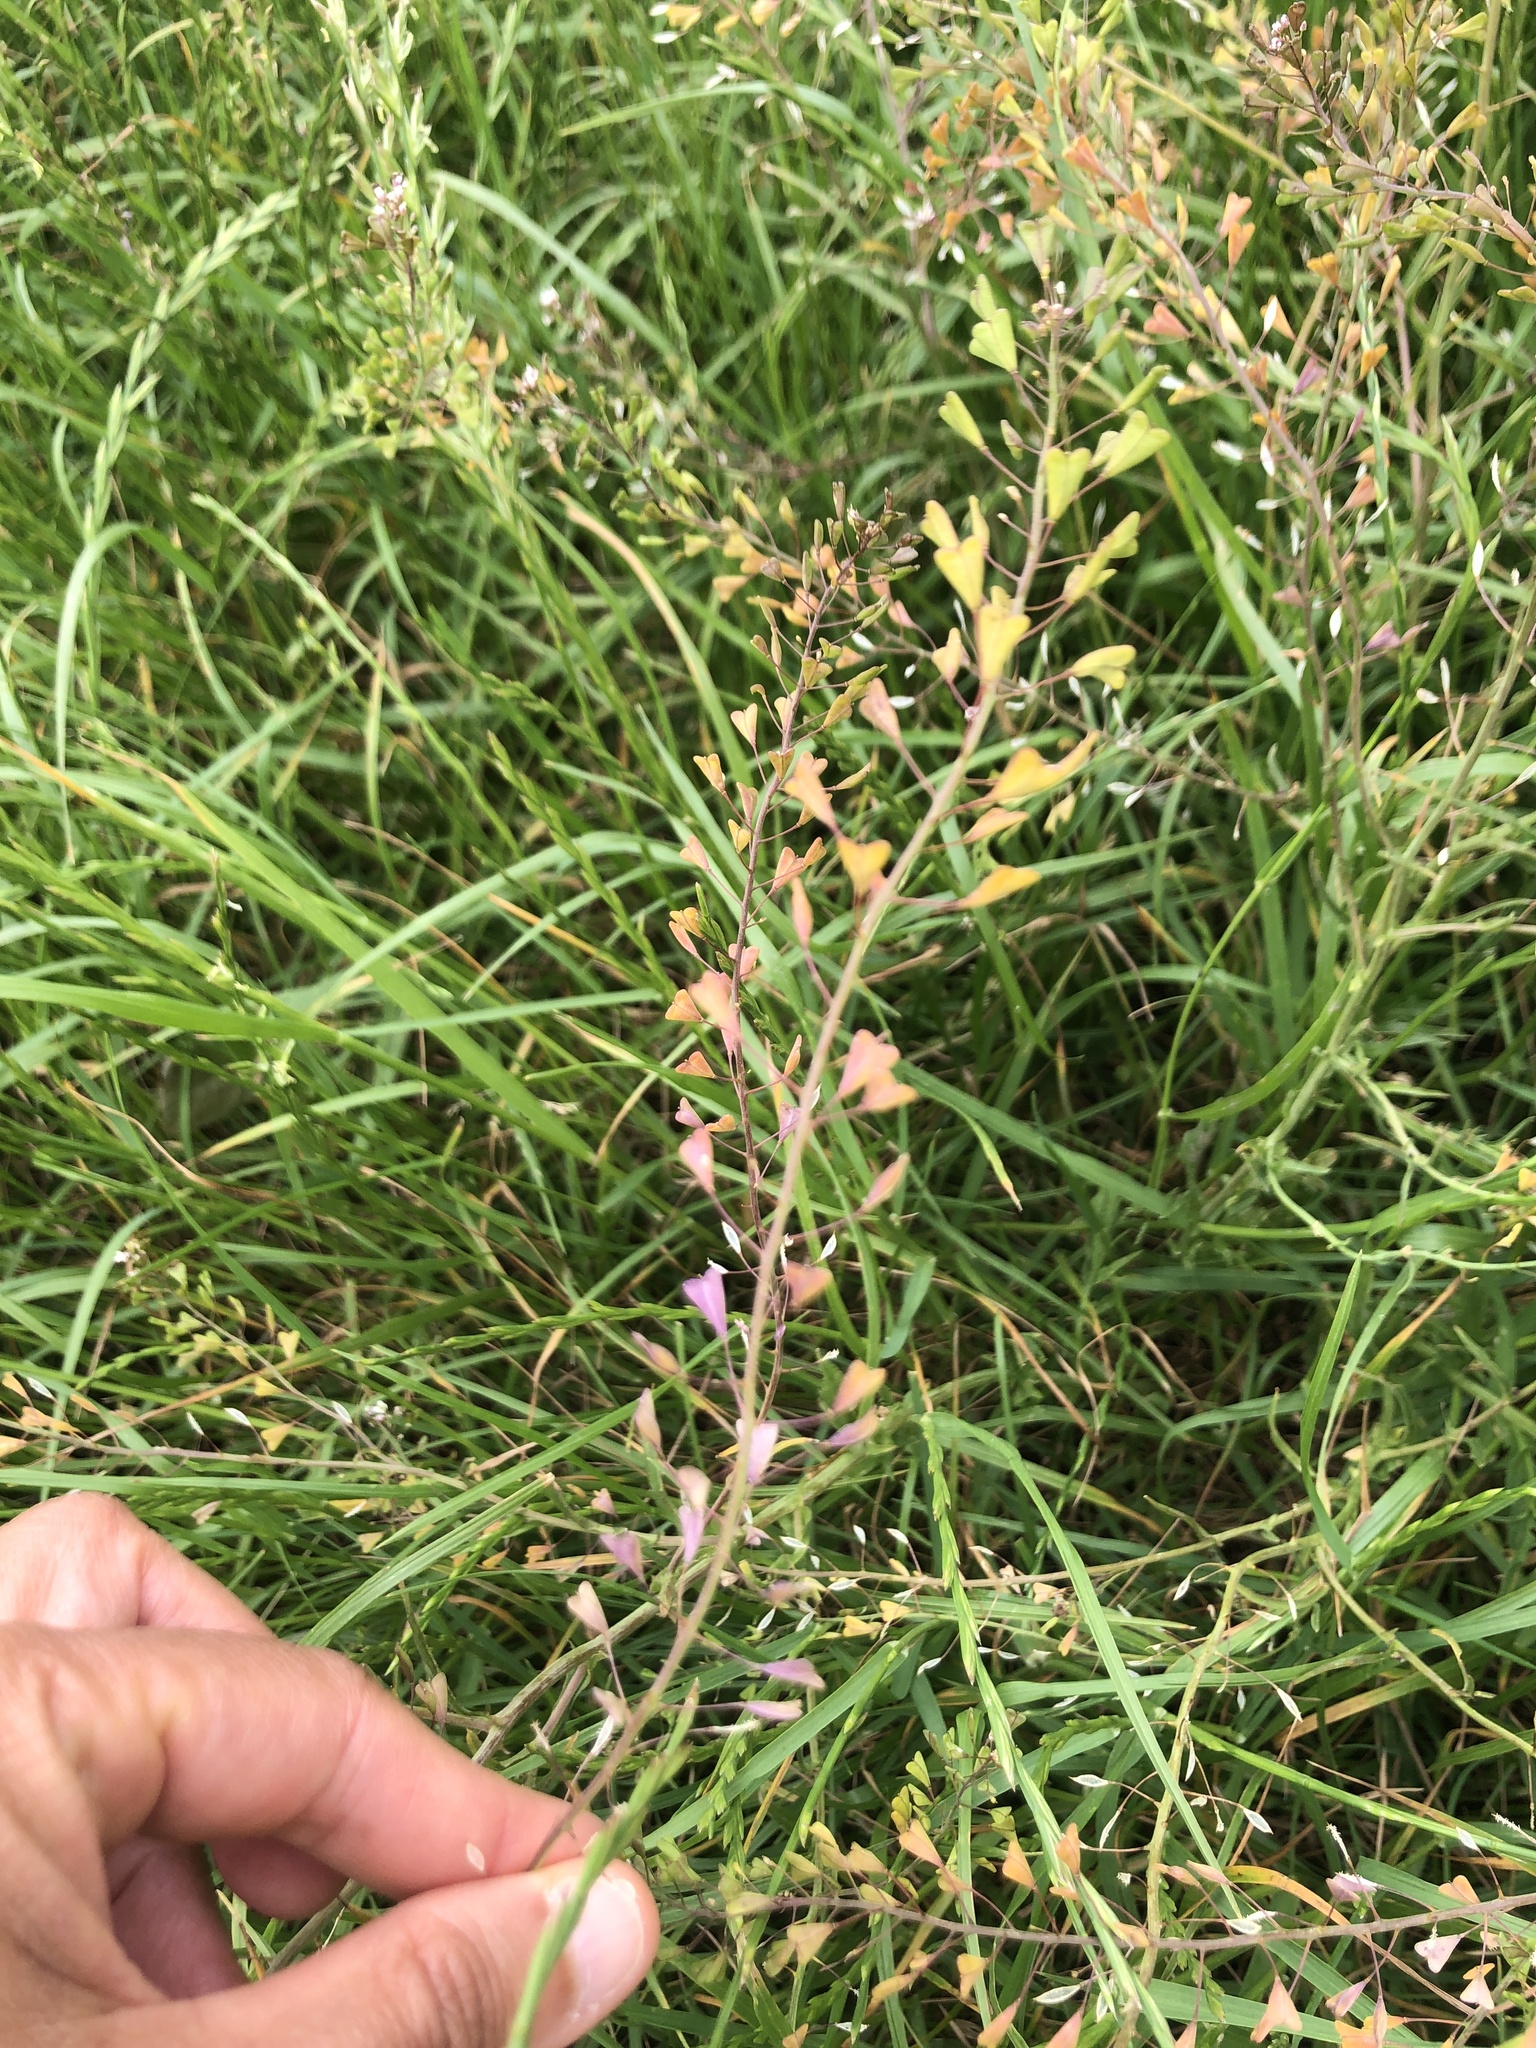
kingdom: Plantae
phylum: Tracheophyta
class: Magnoliopsida
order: Brassicales
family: Brassicaceae
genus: Capsella
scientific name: Capsella bursa-pastoris
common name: Shepherd's purse
